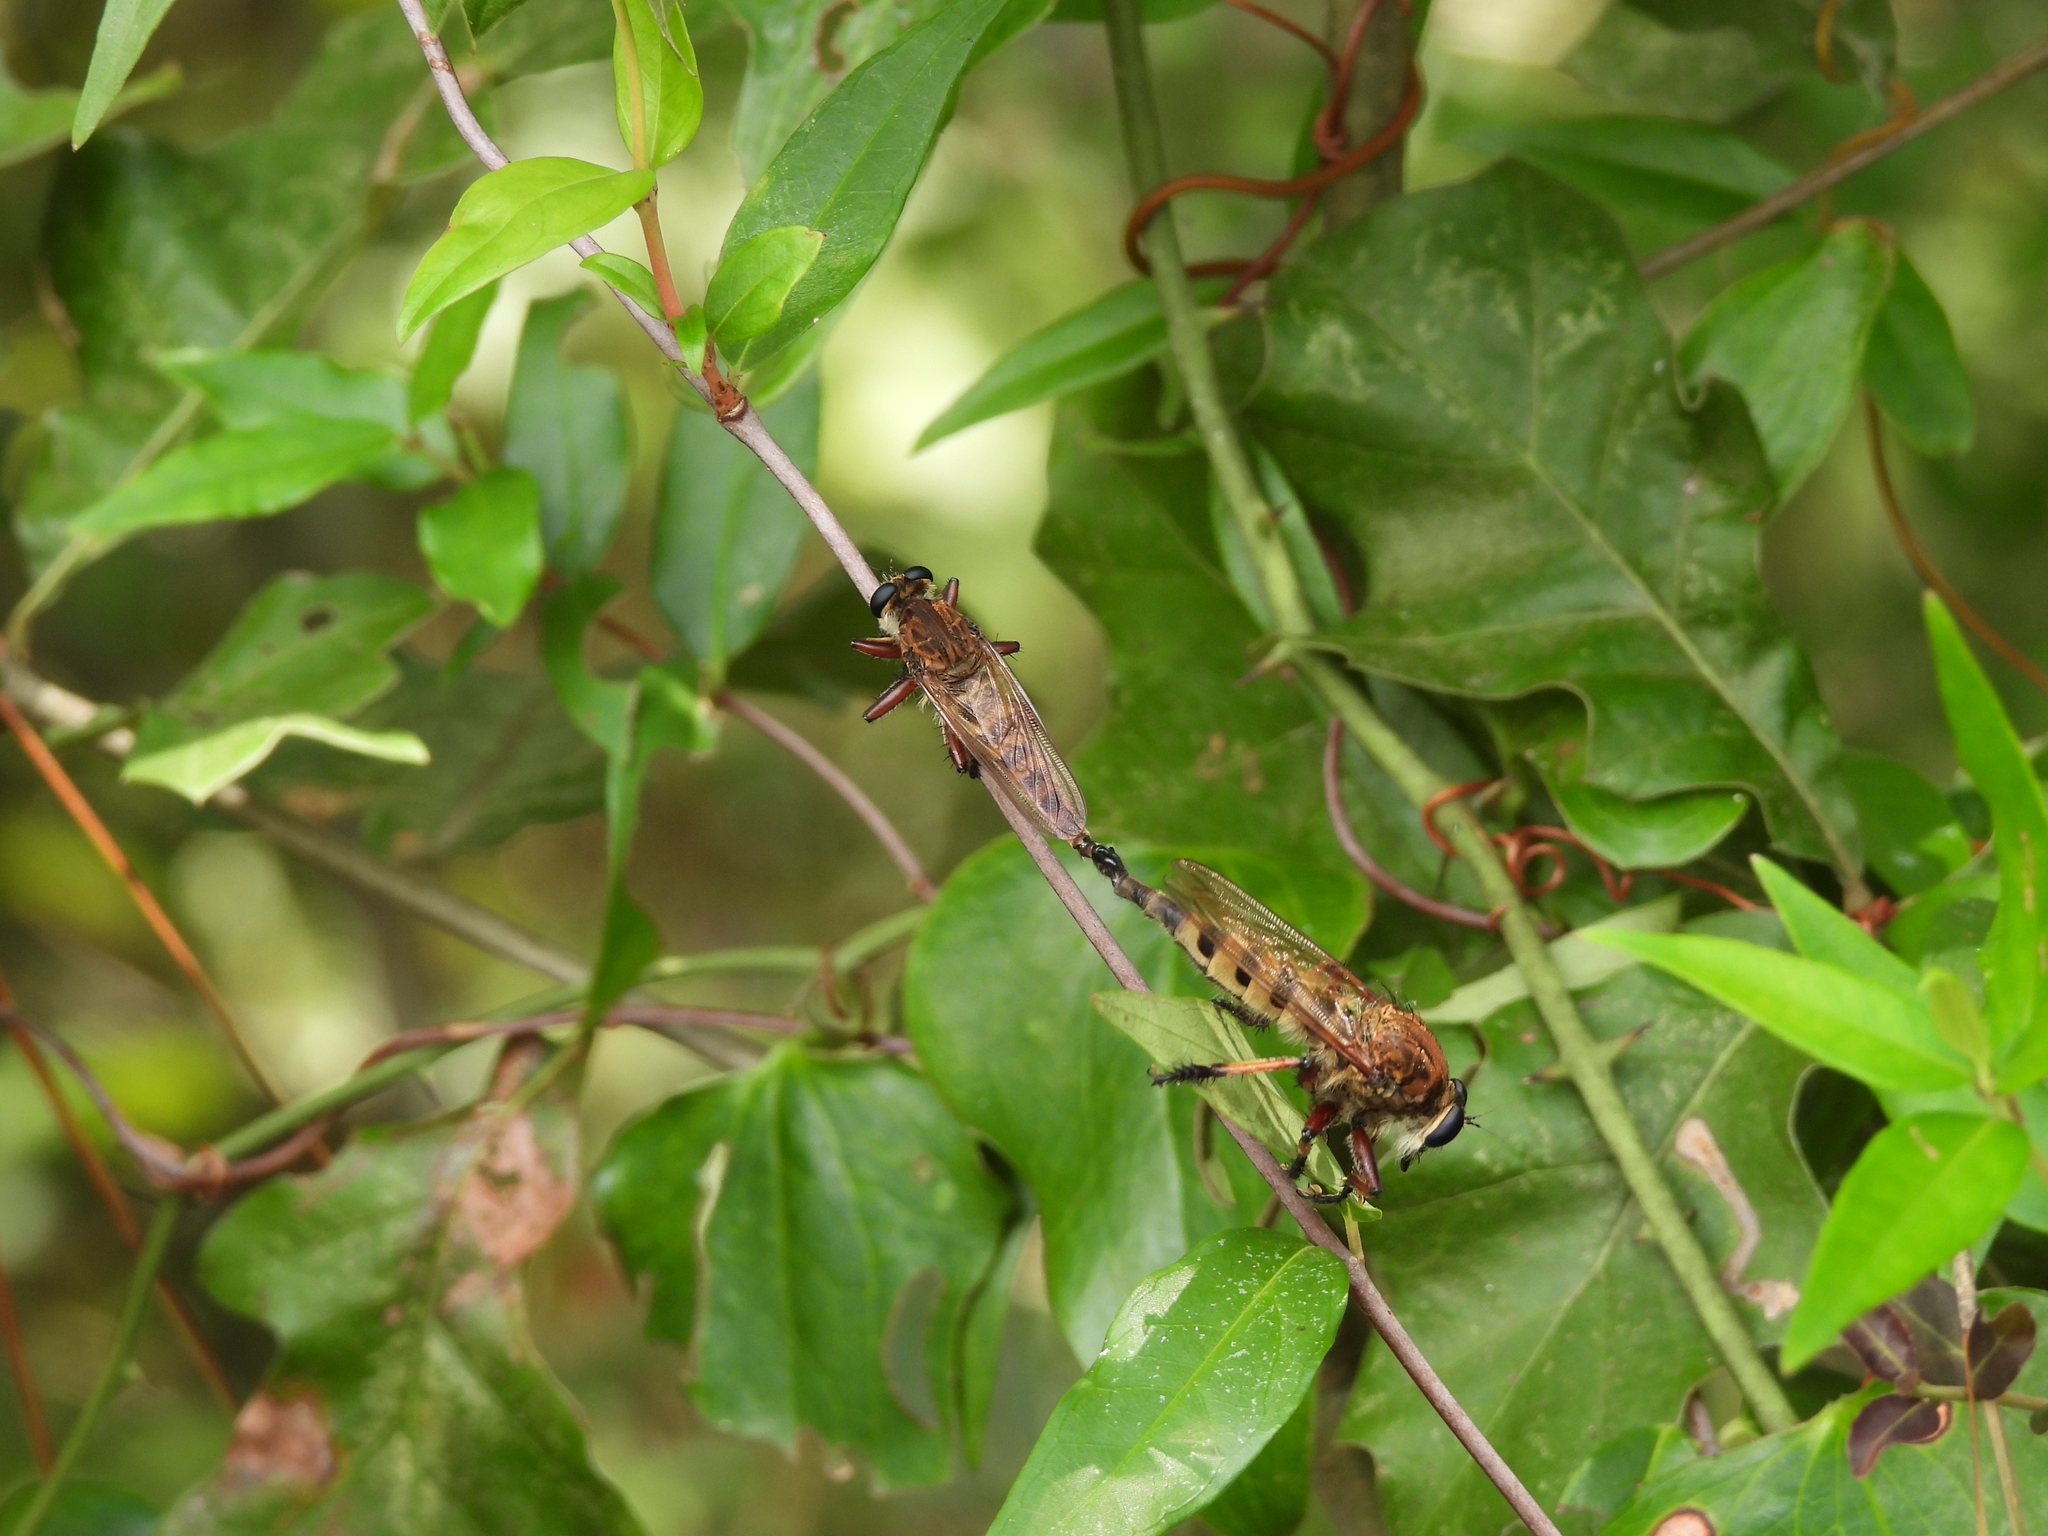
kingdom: Animalia
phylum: Arthropoda
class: Insecta
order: Diptera
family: Asilidae
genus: Promachus
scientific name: Promachus hinei
